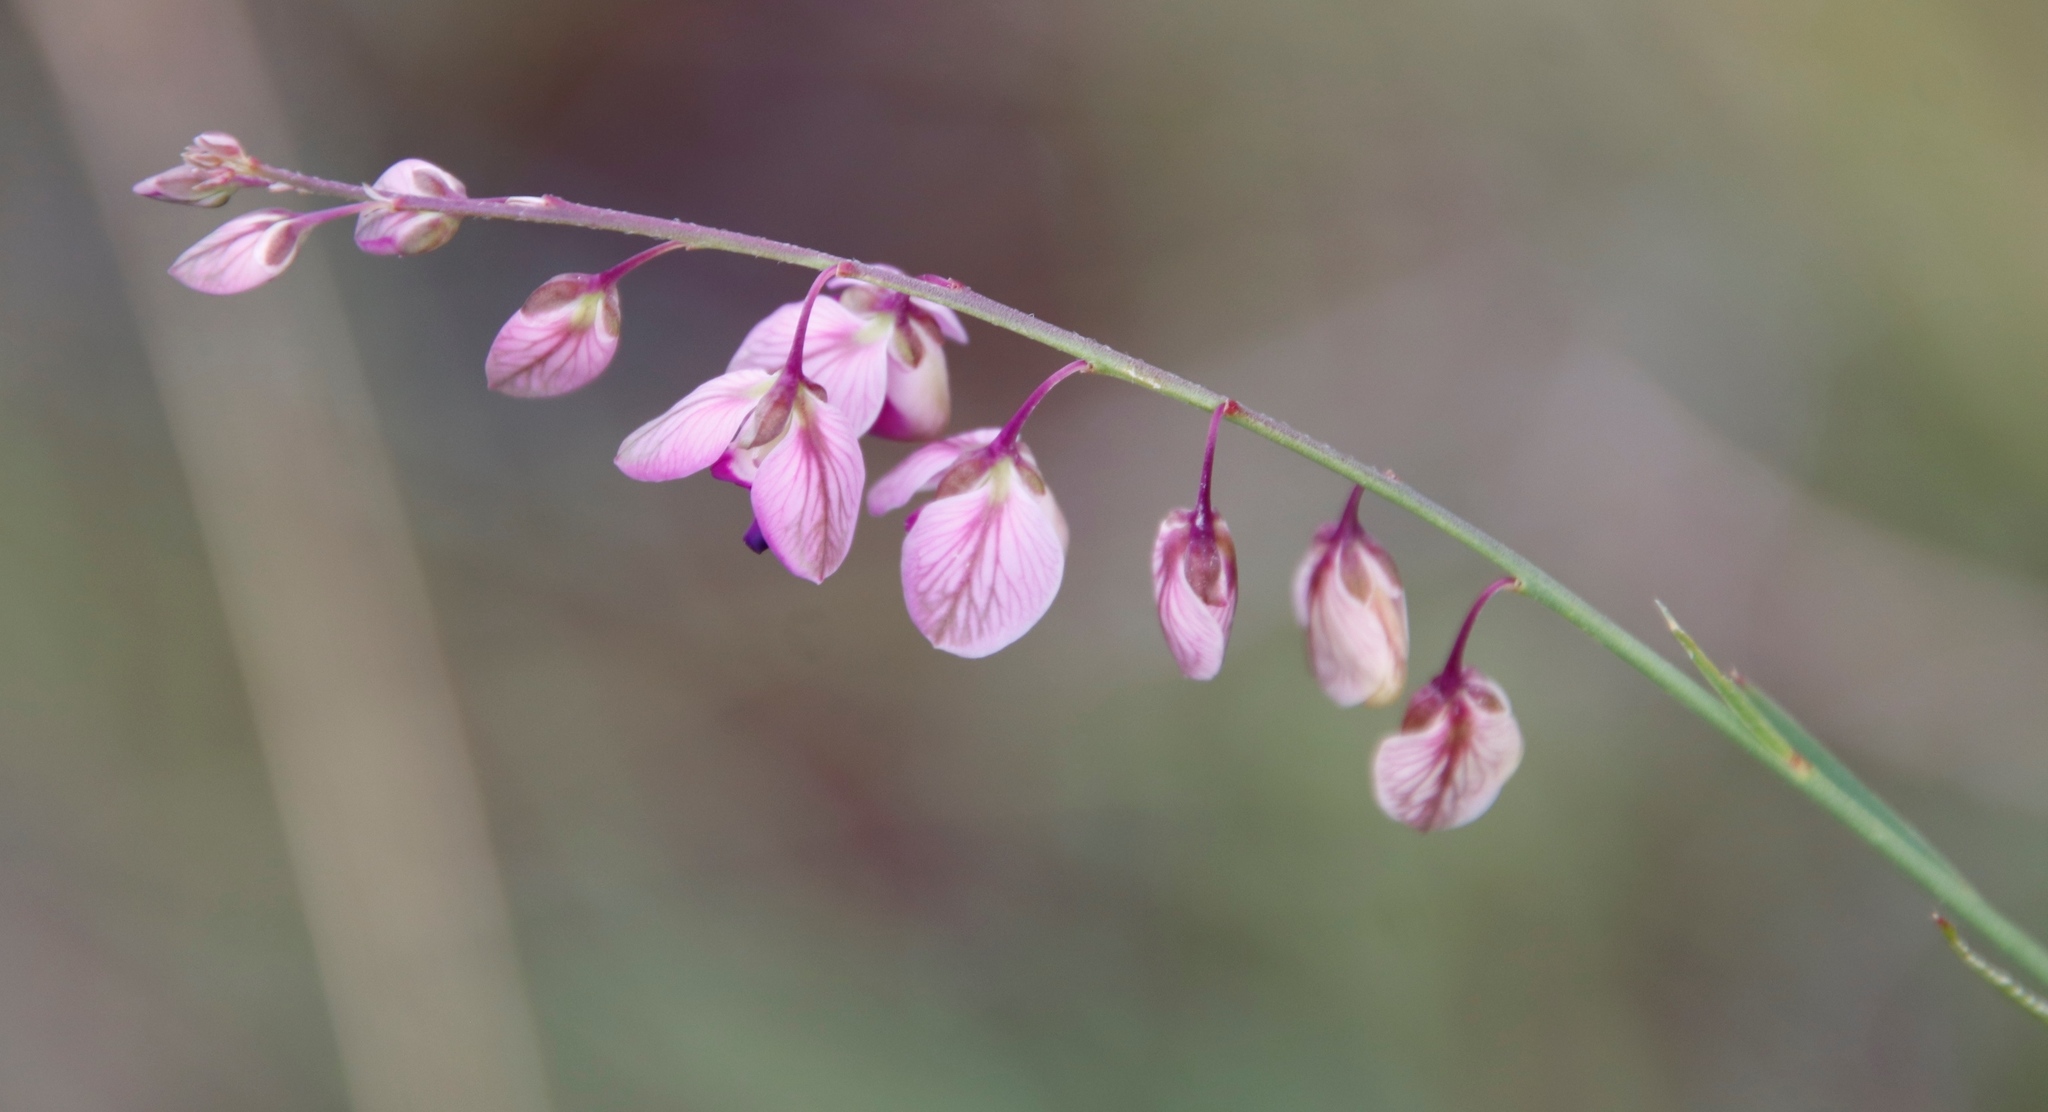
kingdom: Plantae
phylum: Tracheophyta
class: Magnoliopsida
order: Fabales
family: Polygalaceae
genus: Polygala
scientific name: Polygala hottentotta
